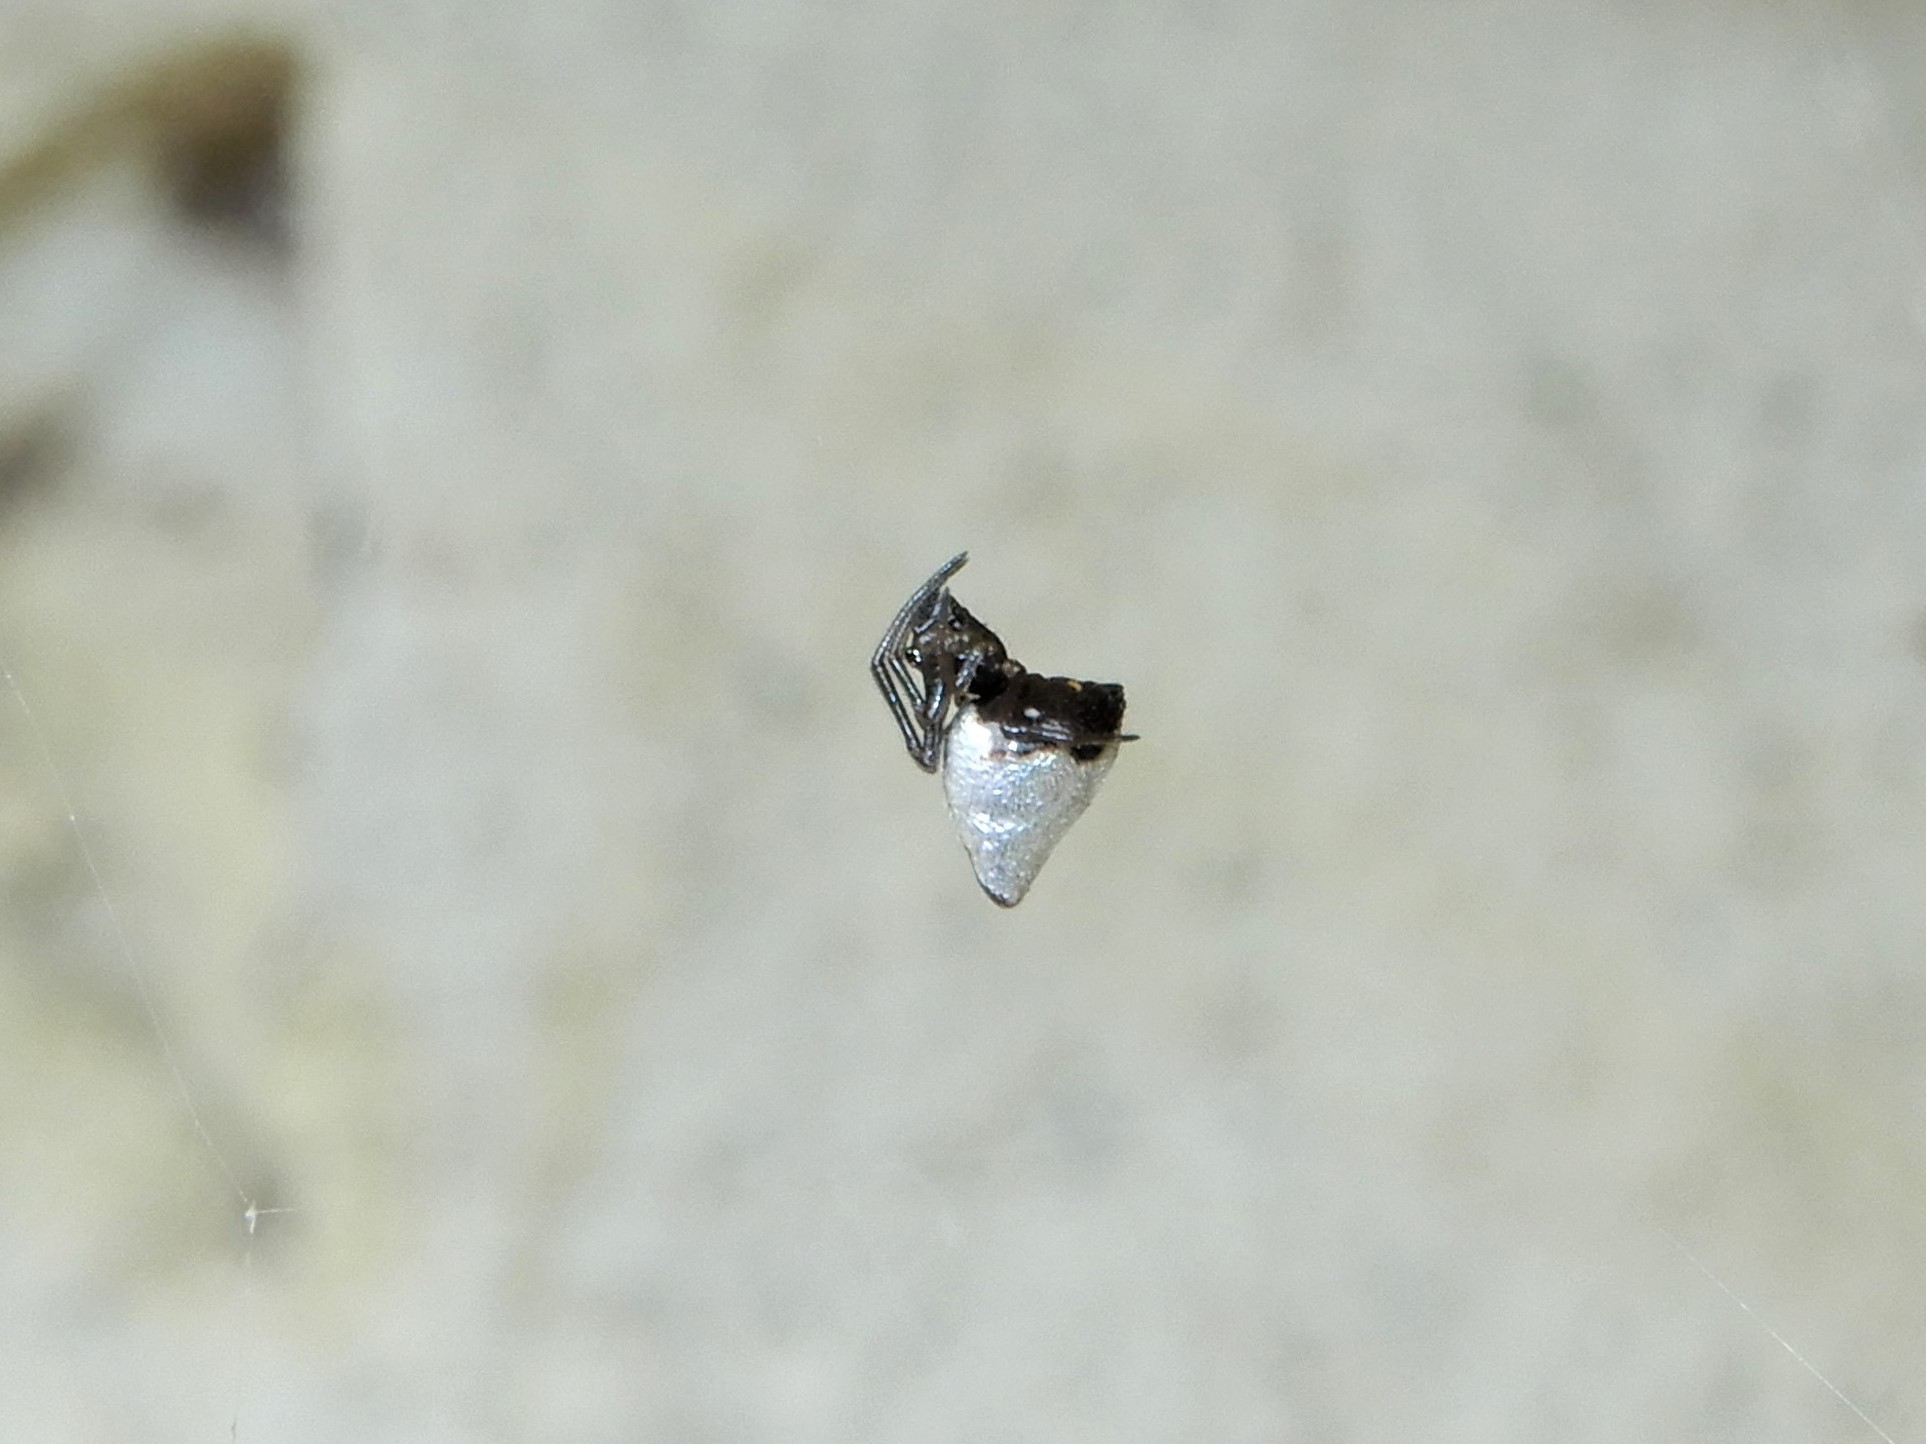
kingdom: Animalia
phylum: Arthropoda
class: Arachnida
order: Araneae
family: Theridiidae
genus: Argyrodes
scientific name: Argyrodes antipodianus
